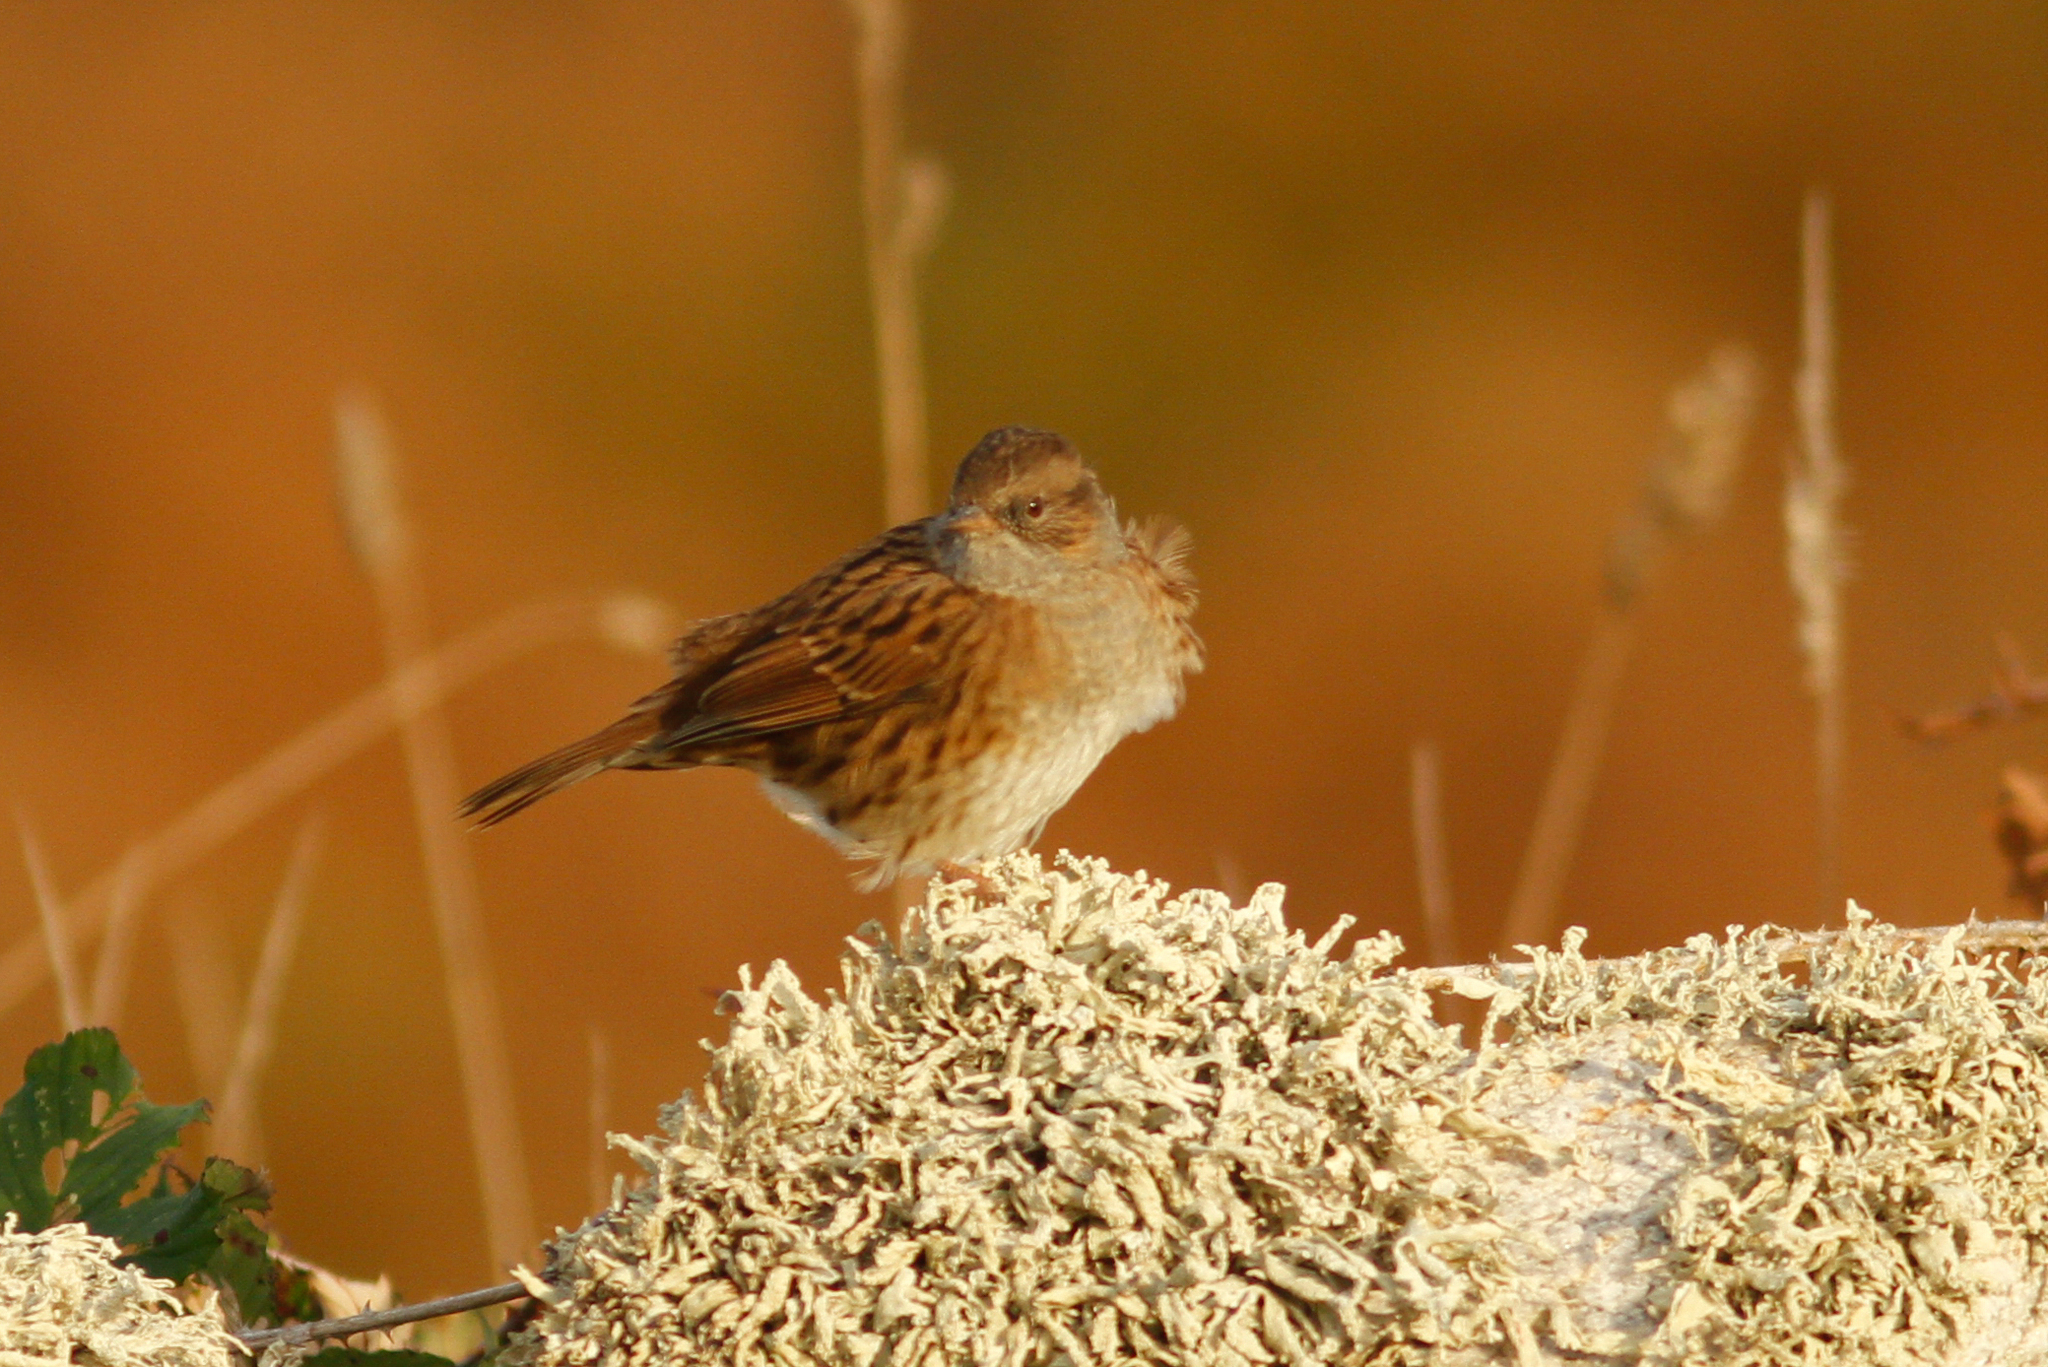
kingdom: Animalia
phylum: Chordata
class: Aves
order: Passeriformes
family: Prunellidae
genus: Prunella
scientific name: Prunella modularis
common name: Dunnock
